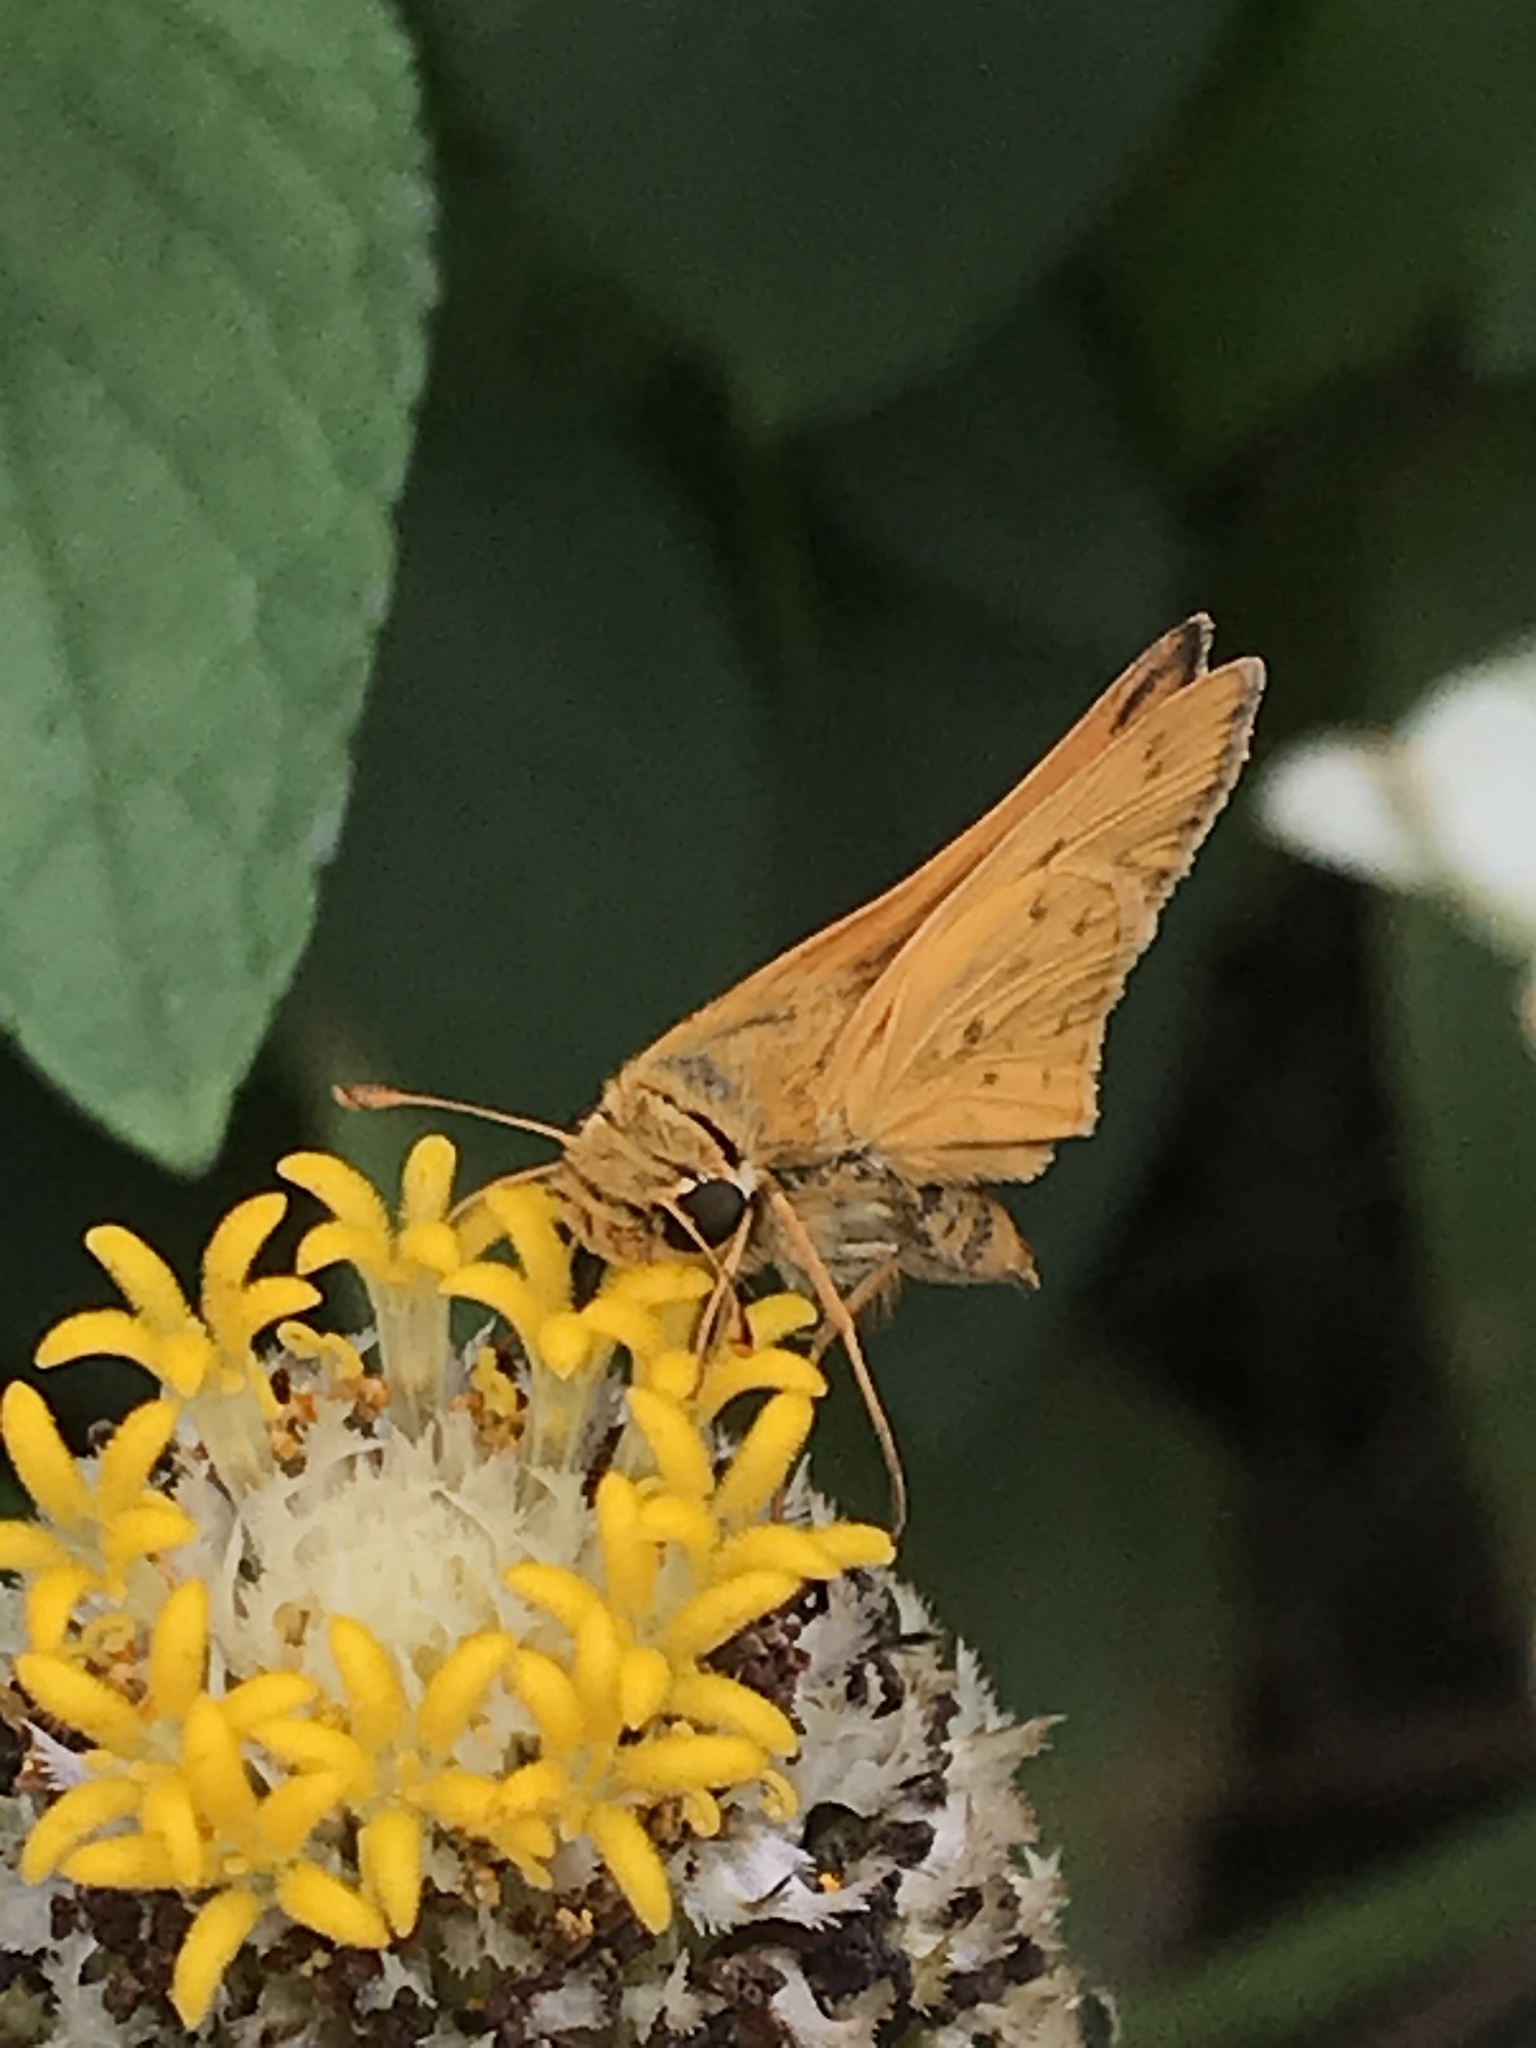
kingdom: Animalia
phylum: Arthropoda
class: Insecta
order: Lepidoptera
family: Hesperiidae
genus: Hylephila
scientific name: Hylephila phyleus
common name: Fiery skipper
